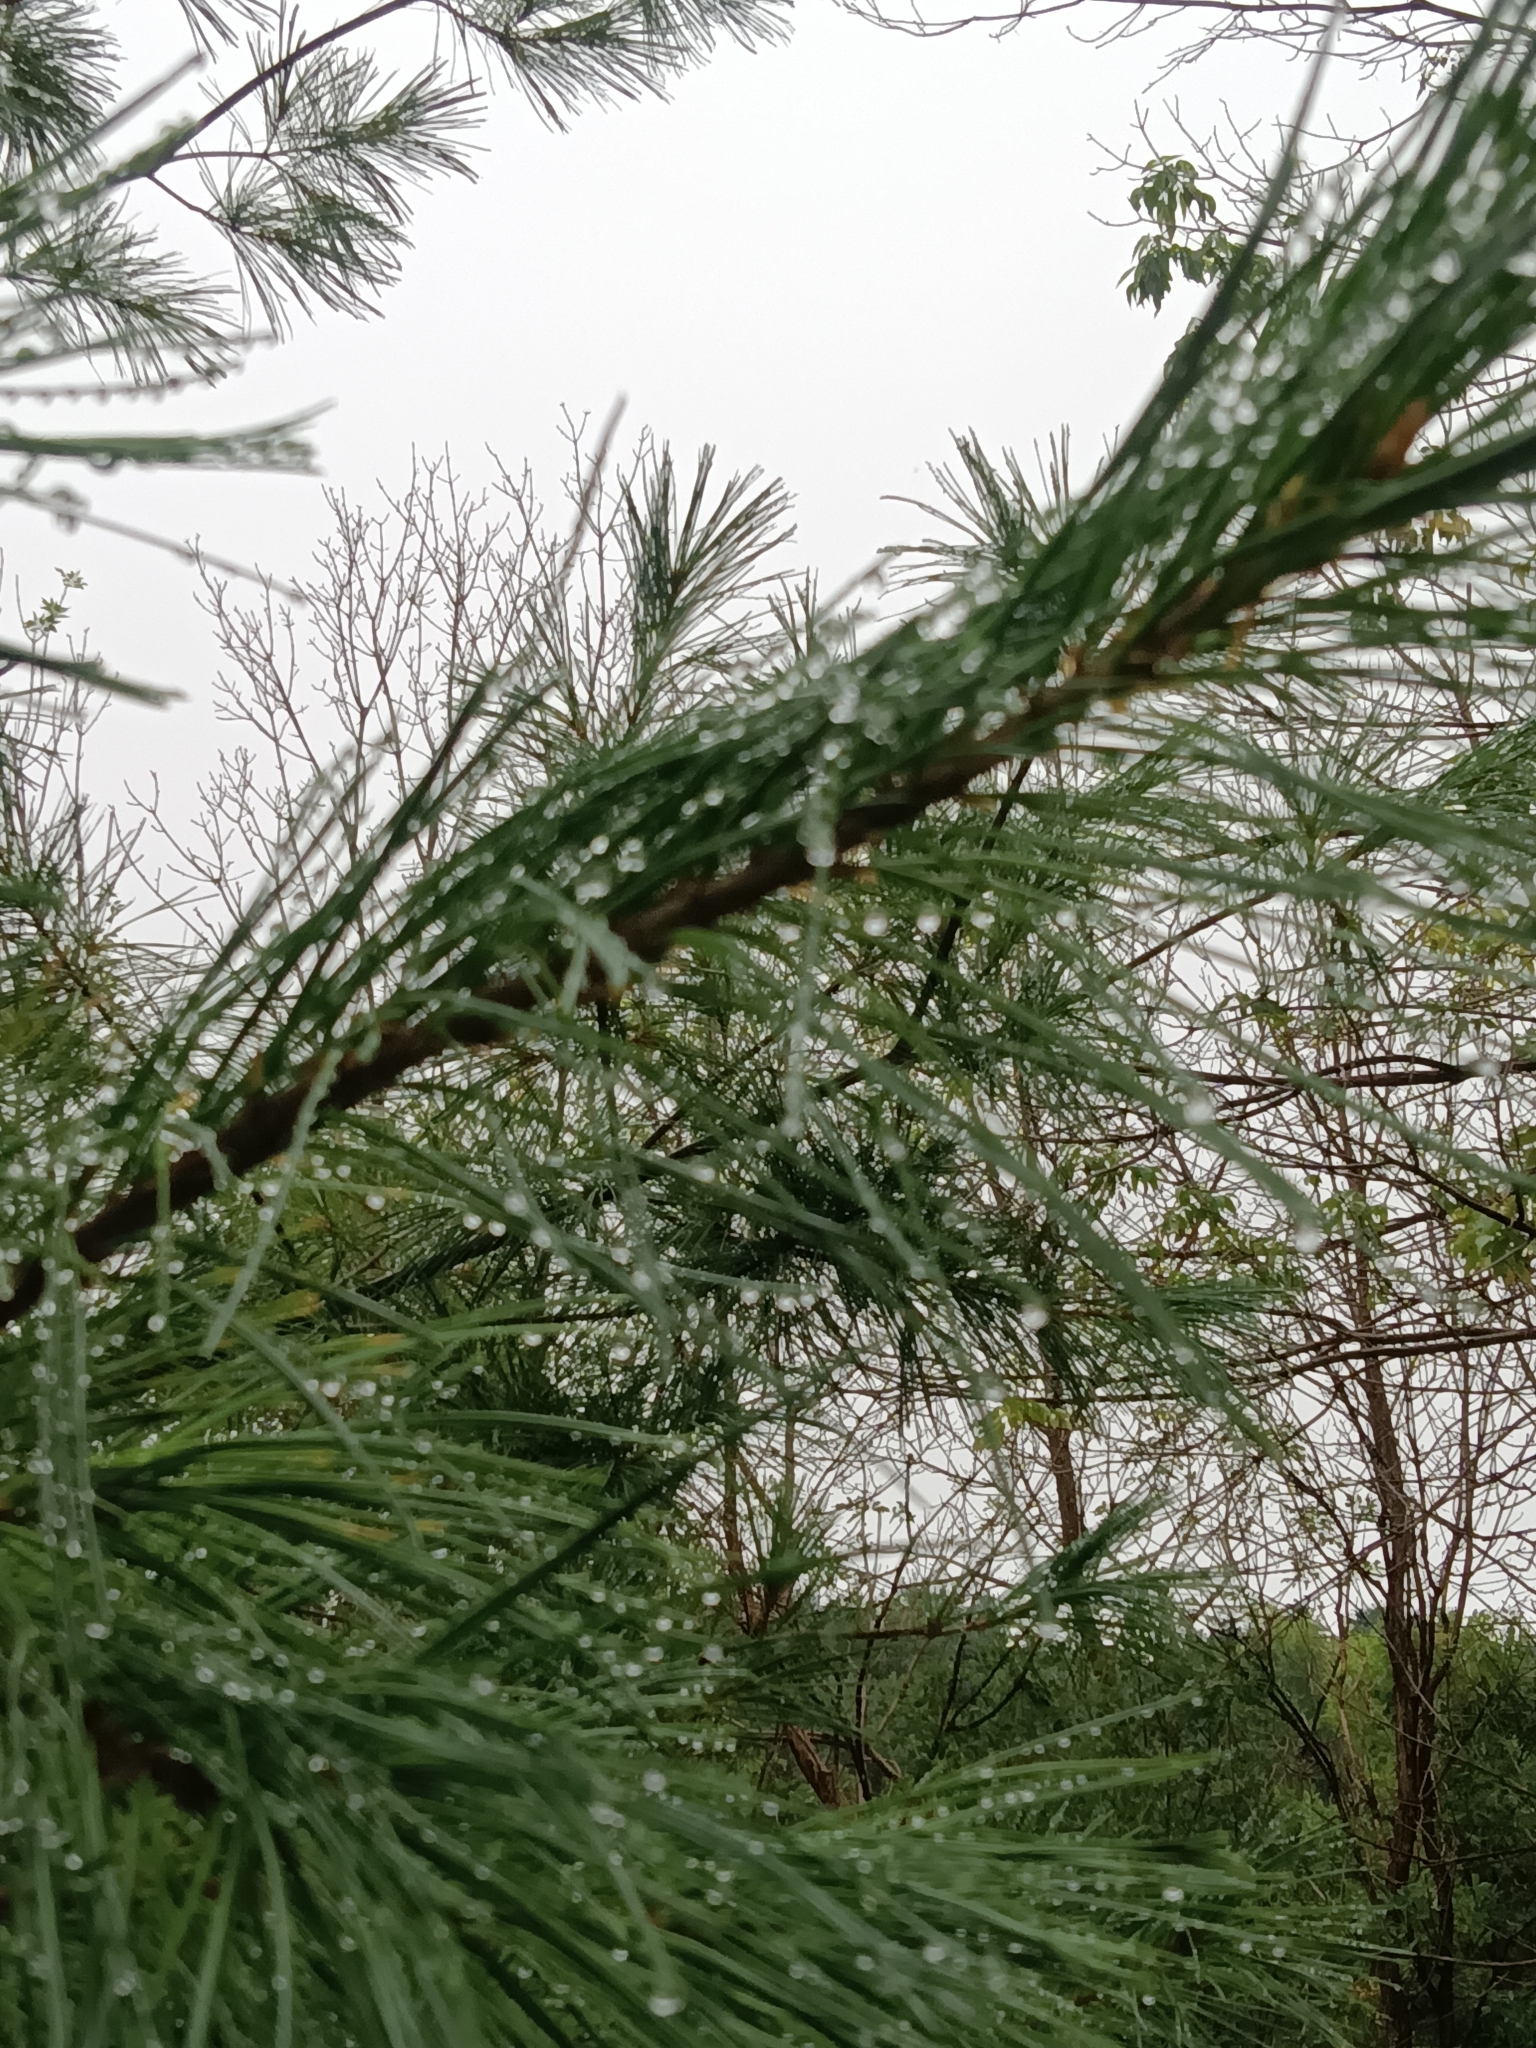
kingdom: Plantae
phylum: Tracheophyta
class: Pinopsida
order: Pinales
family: Pinaceae
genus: Pinus
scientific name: Pinus strobus
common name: Weymouth pine
